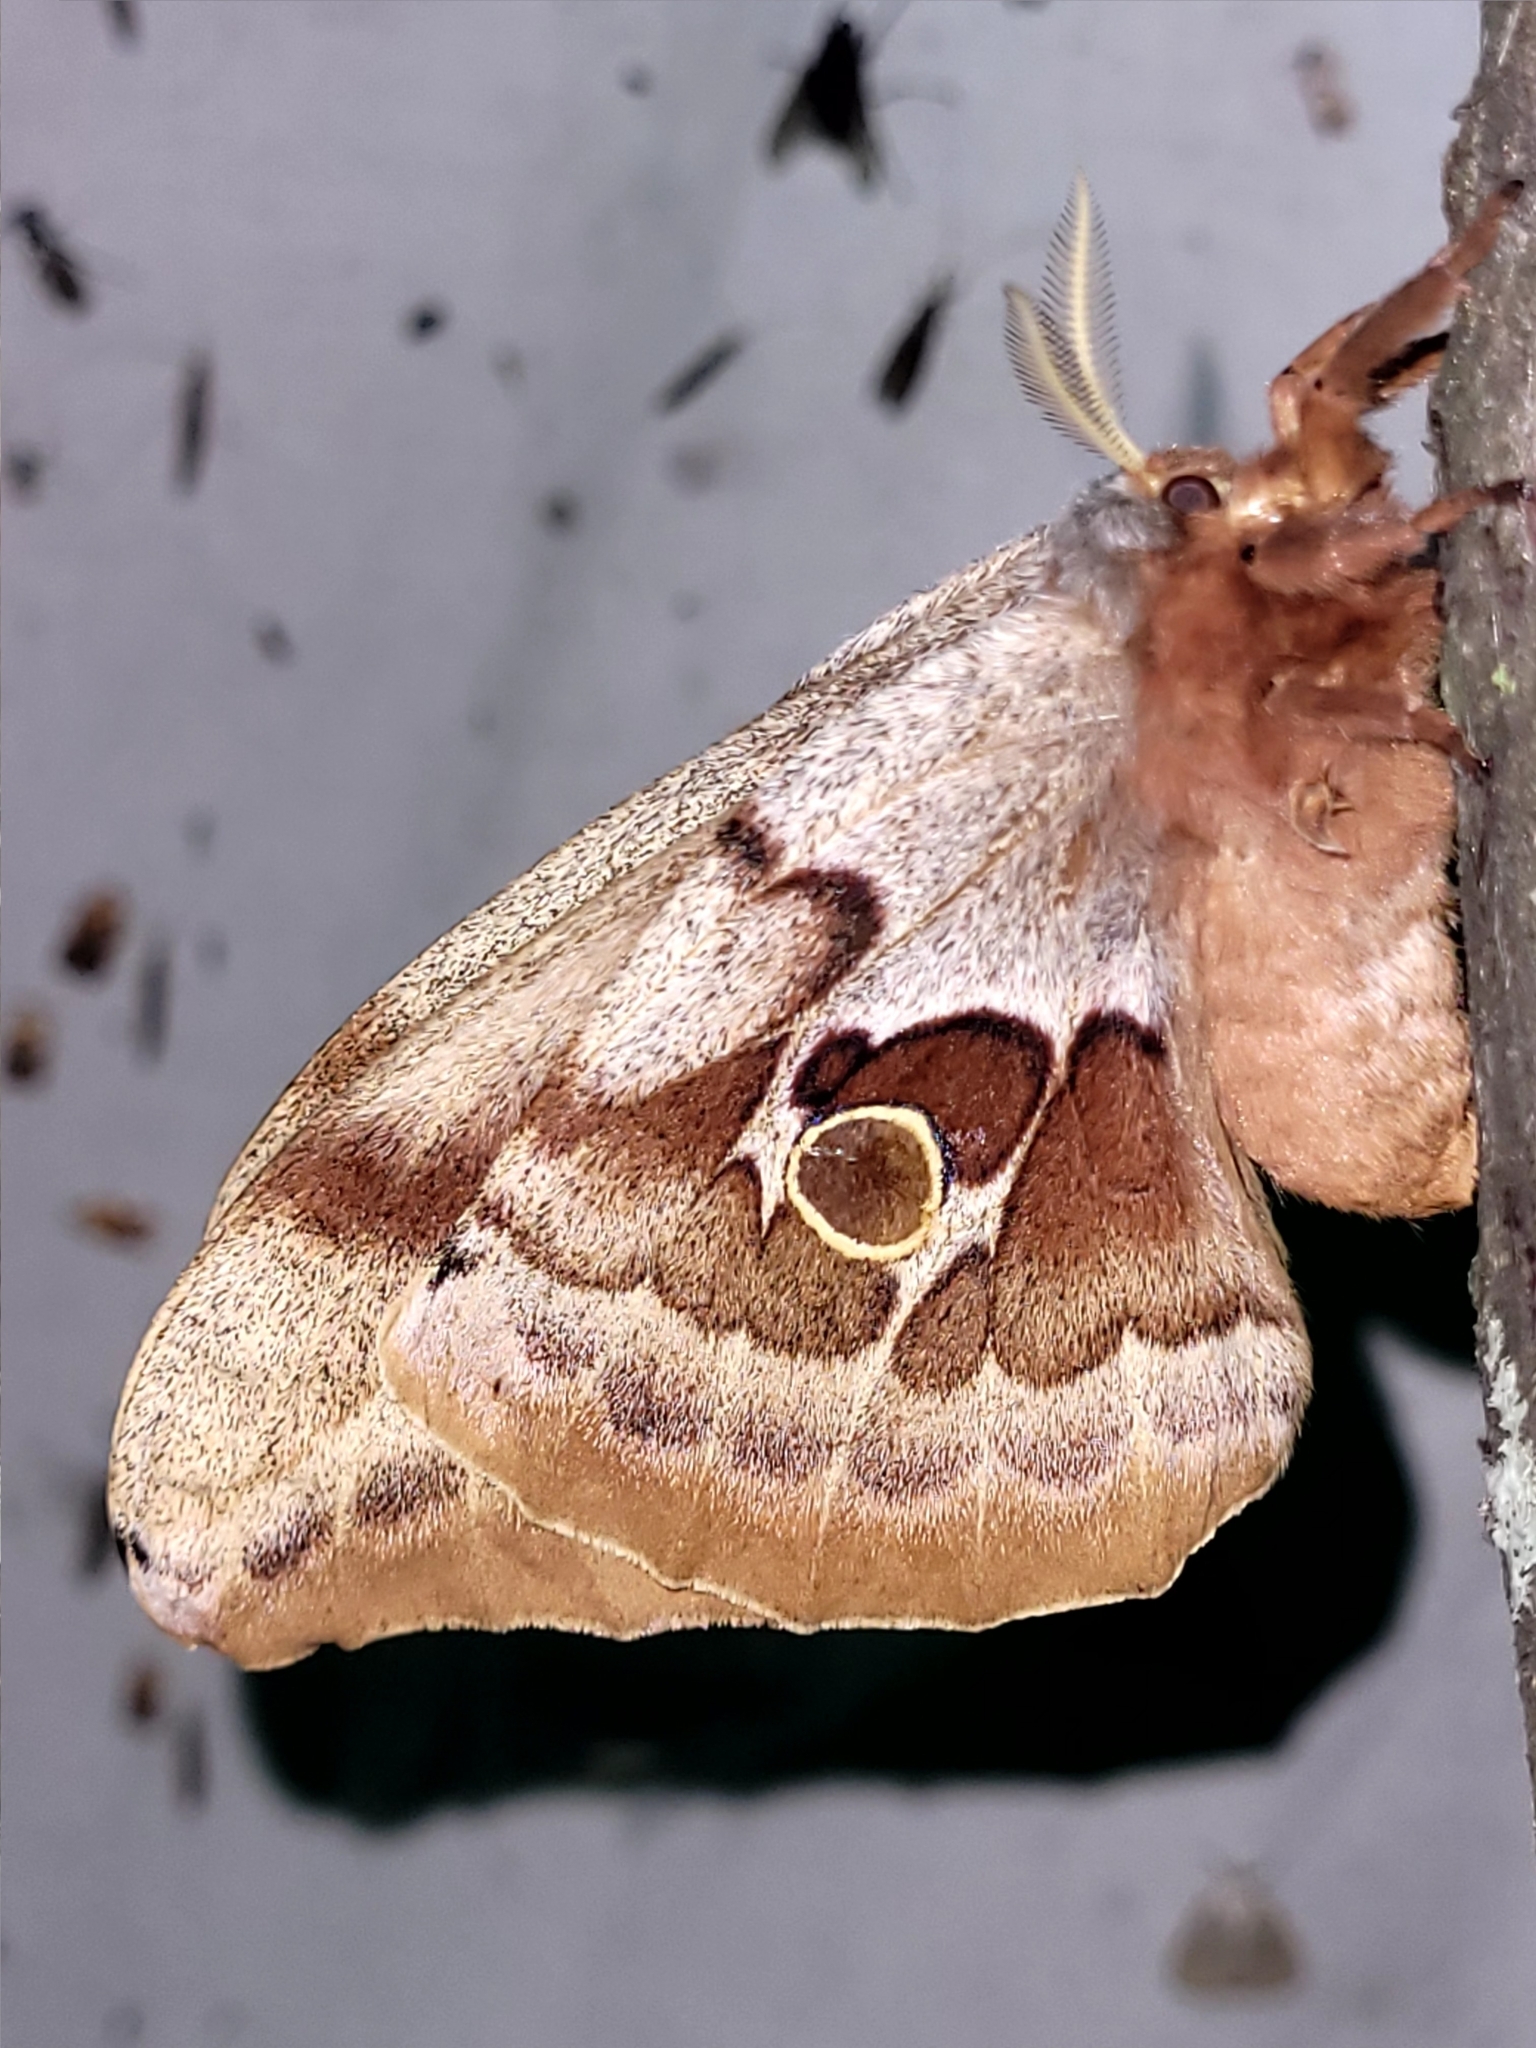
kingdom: Animalia
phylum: Arthropoda
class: Insecta
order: Lepidoptera
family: Saturniidae
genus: Antheraea
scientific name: Antheraea polyphemus
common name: Polyphemus moth
